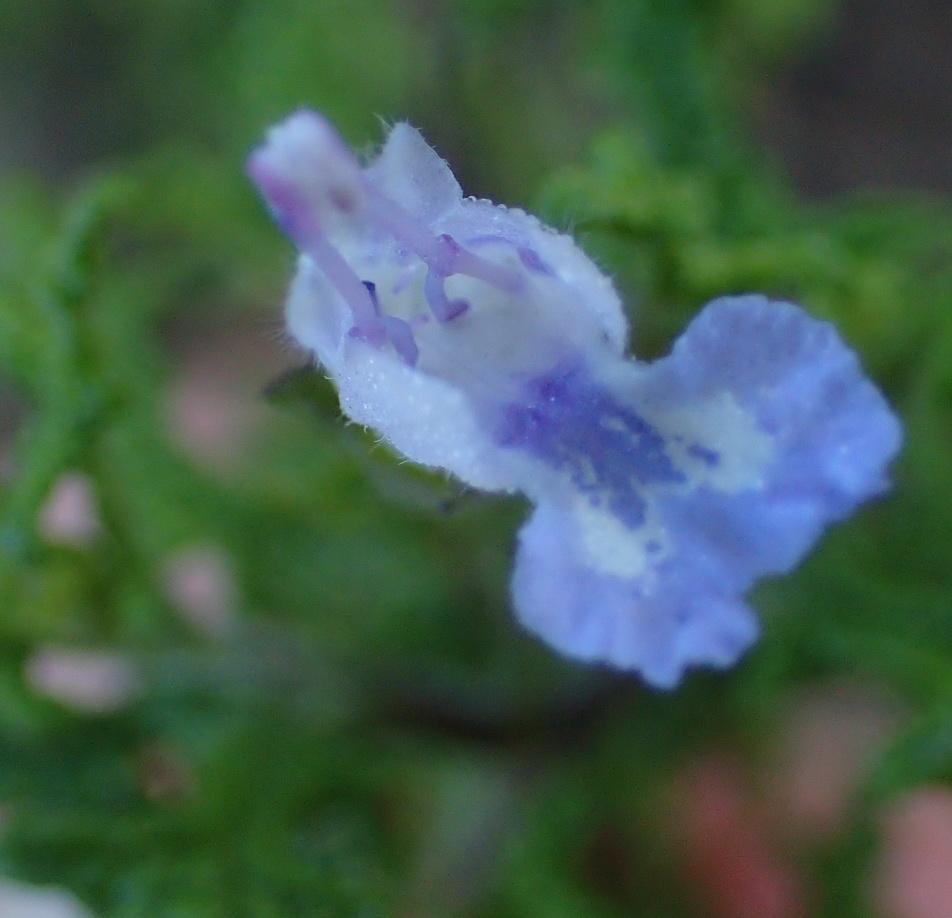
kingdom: Plantae
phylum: Tracheophyta
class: Magnoliopsida
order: Lamiales
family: Lamiaceae
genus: Salvia
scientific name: Salvia namaensis
